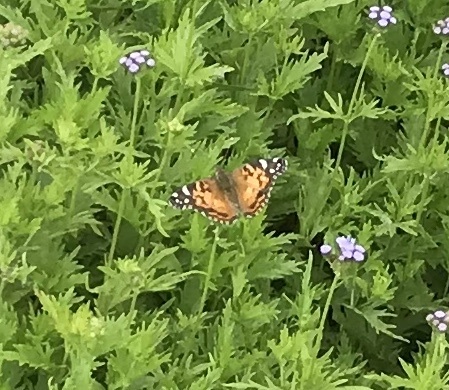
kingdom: Animalia
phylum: Arthropoda
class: Insecta
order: Lepidoptera
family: Nymphalidae
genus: Vanessa
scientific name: Vanessa virginiensis
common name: American lady
